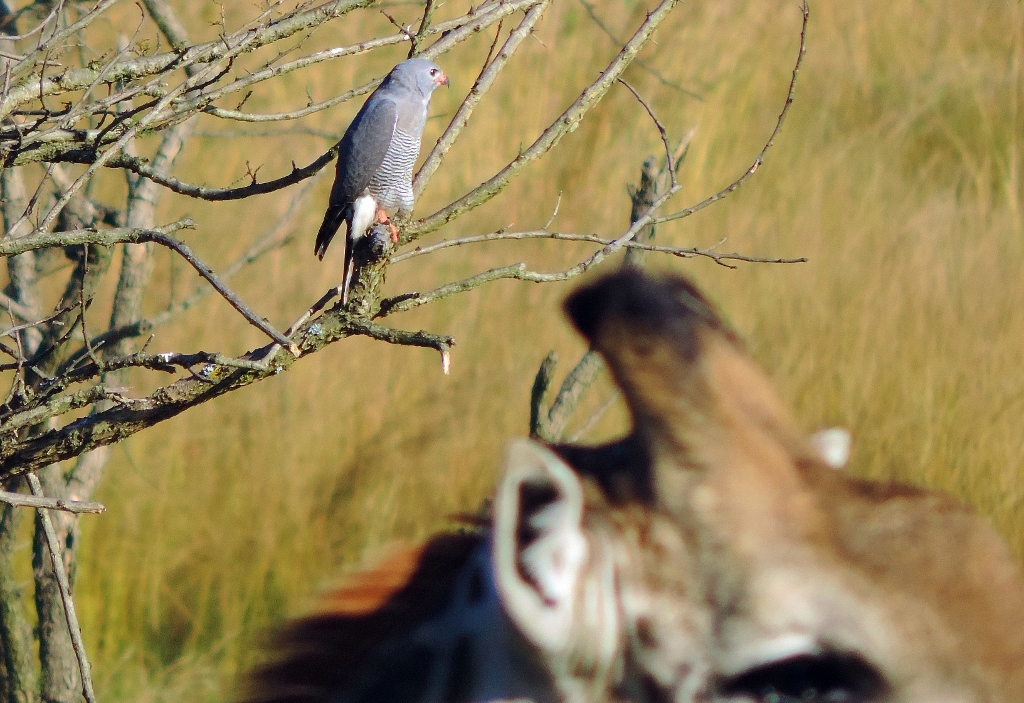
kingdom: Animalia
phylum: Chordata
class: Aves
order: Accipitriformes
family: Accipitridae
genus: Kaupifalco
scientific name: Kaupifalco monogrammicus
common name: Lizard buzzard
